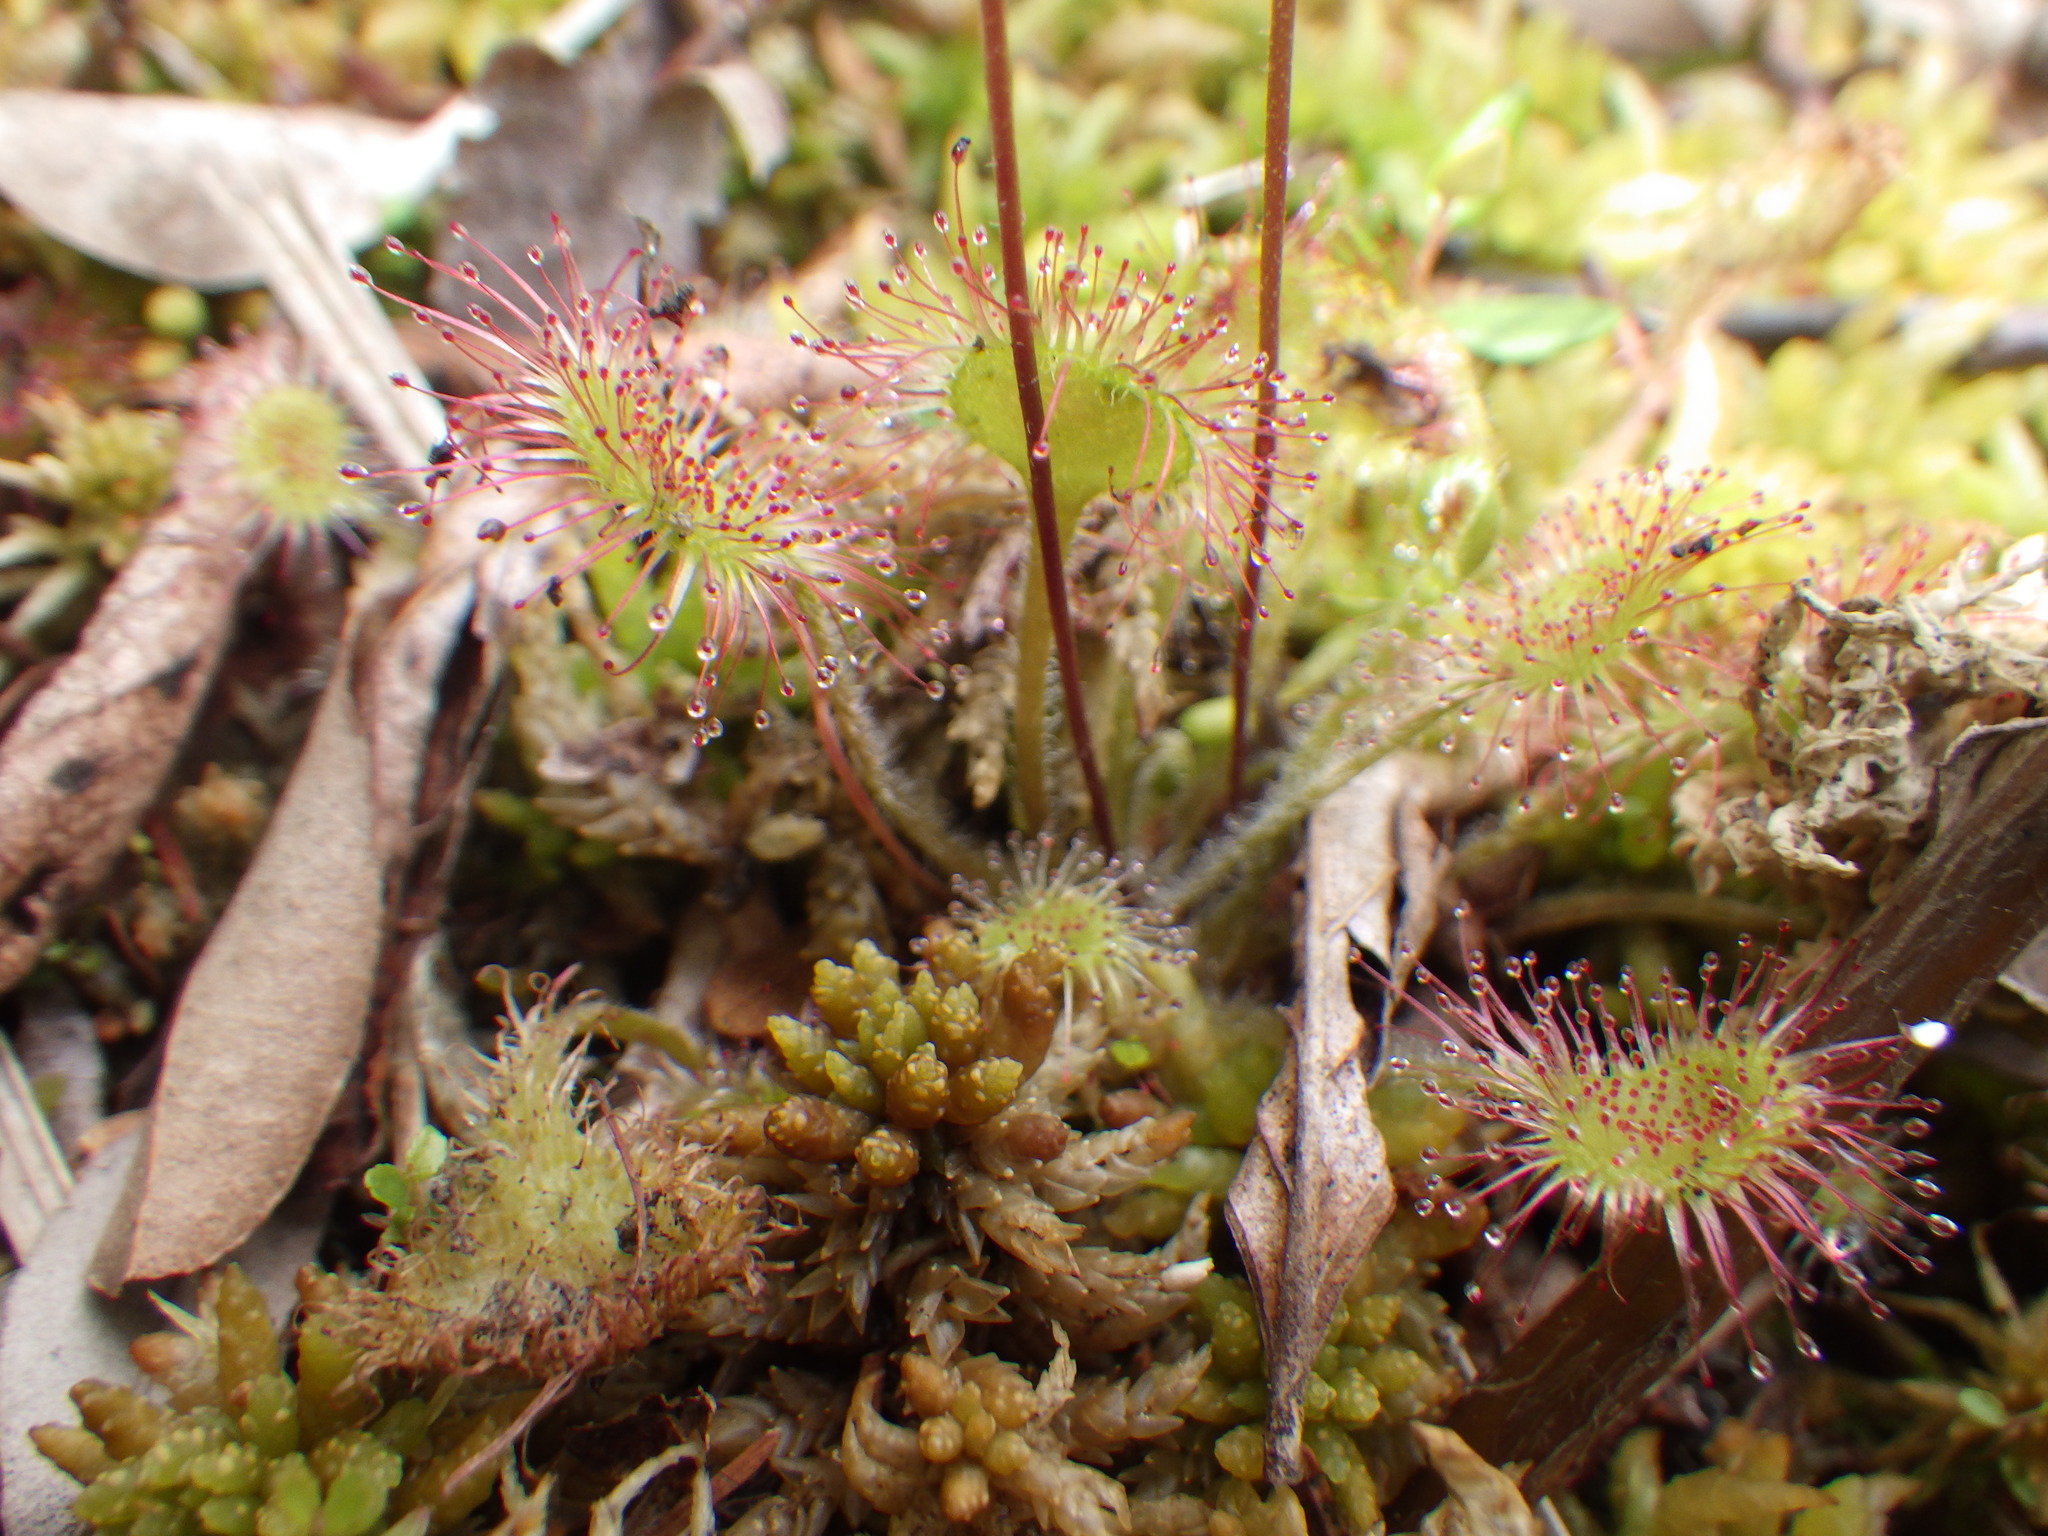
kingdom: Plantae
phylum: Tracheophyta
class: Magnoliopsida
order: Caryophyllales
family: Droseraceae
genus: Drosera
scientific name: Drosera rotundifolia
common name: Round-leaved sundew
